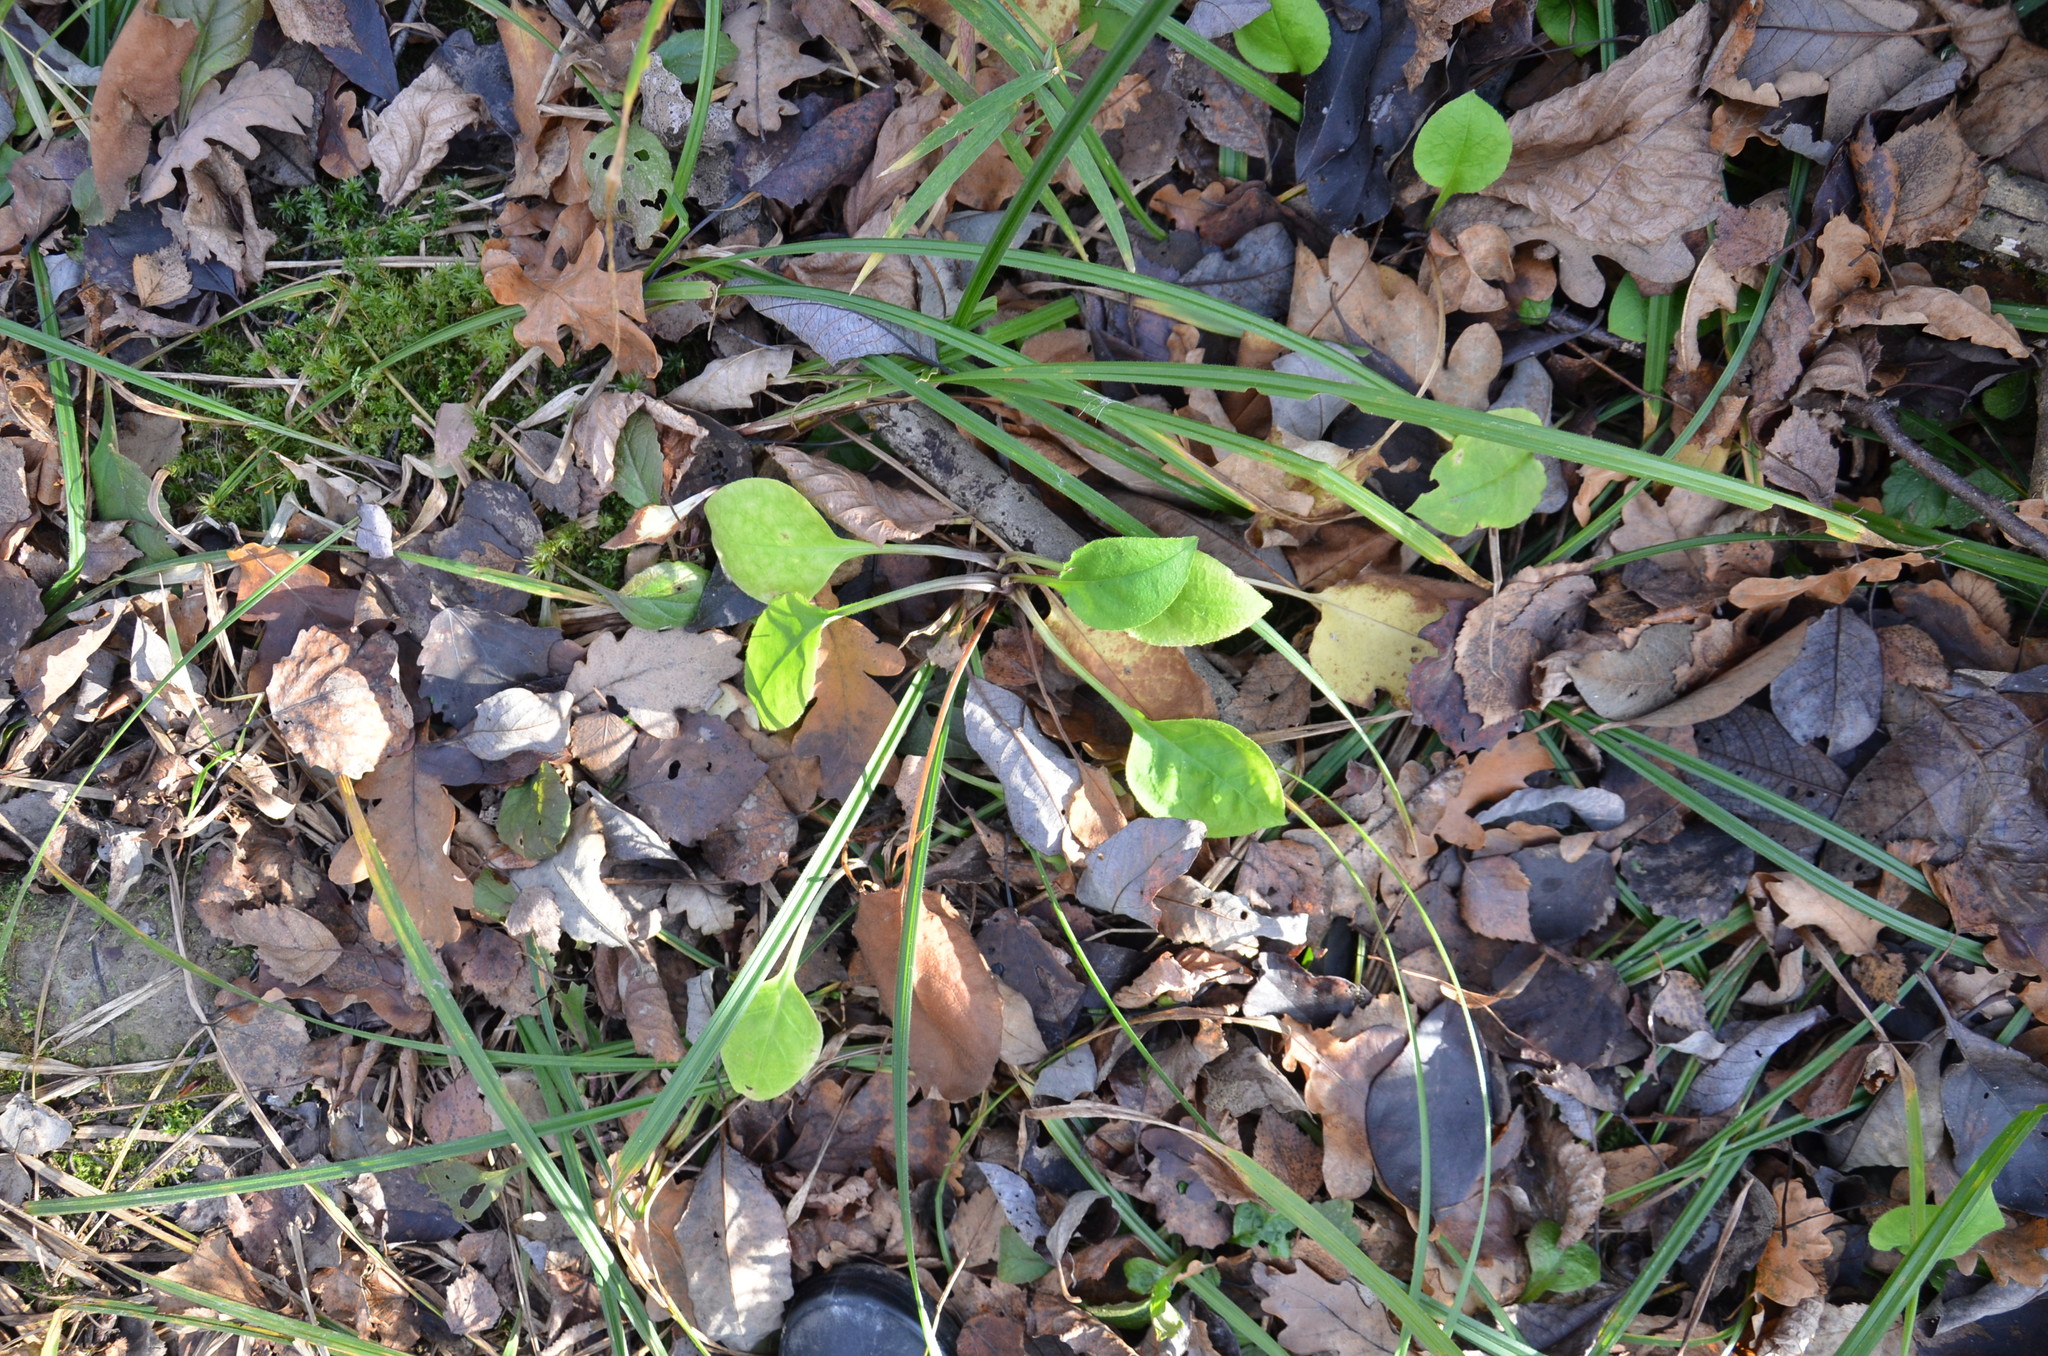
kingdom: Plantae
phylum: Tracheophyta
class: Magnoliopsida
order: Boraginales
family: Boraginaceae
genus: Pulmonaria
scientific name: Pulmonaria obscura
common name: Suffolk lungwort
